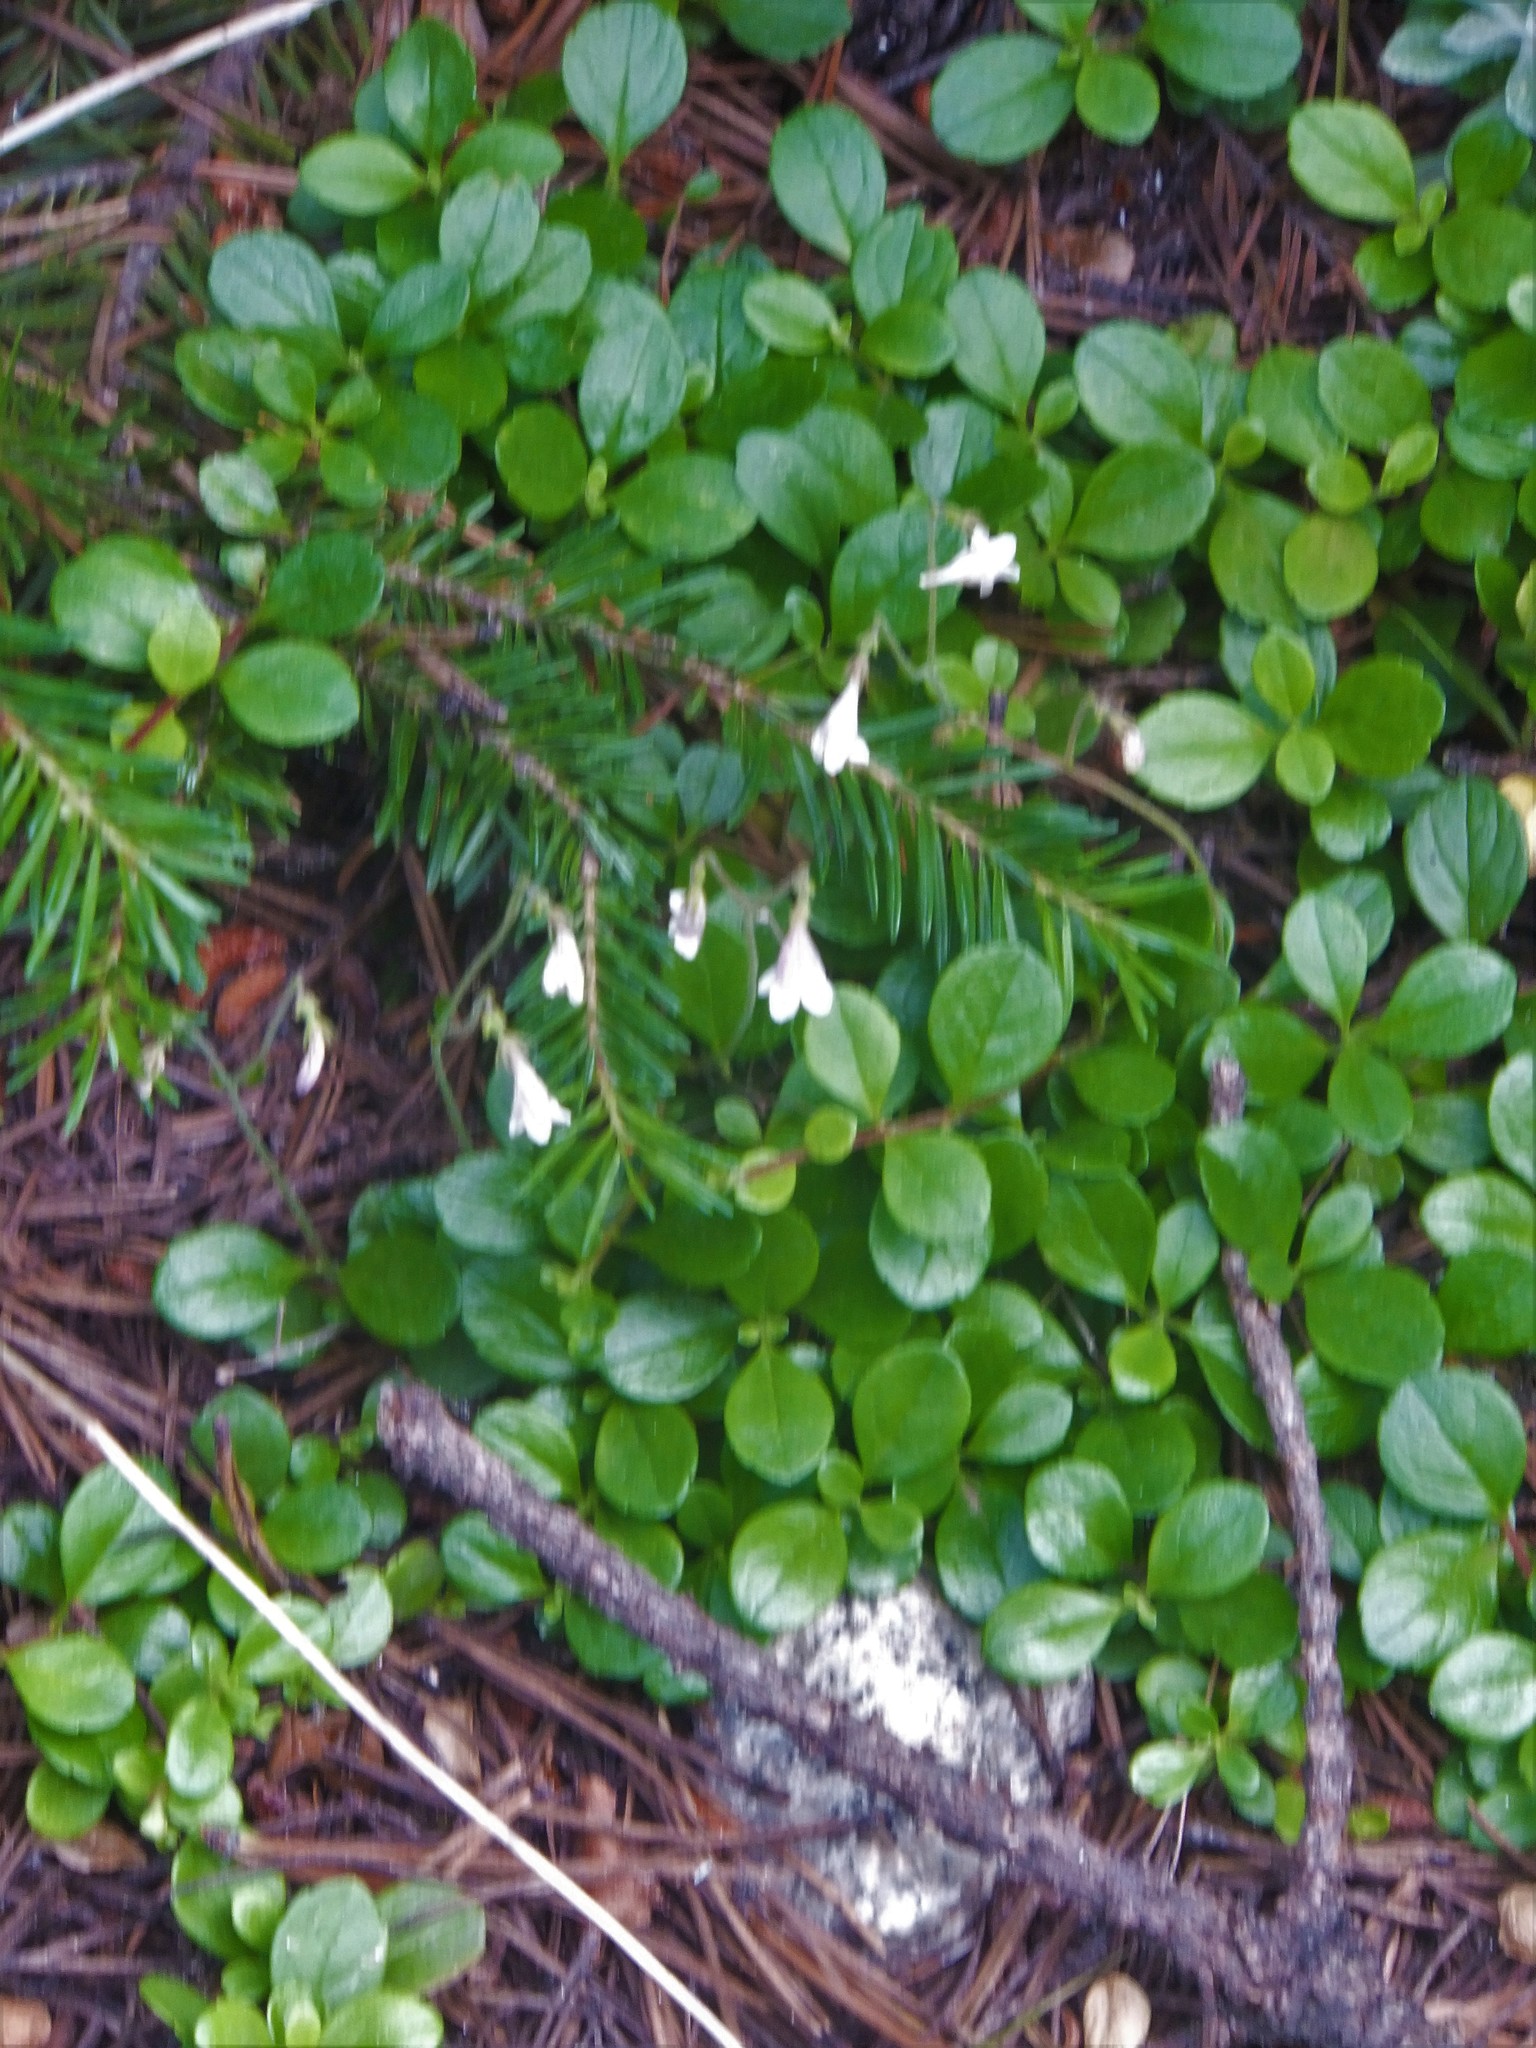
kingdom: Plantae
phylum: Tracheophyta
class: Magnoliopsida
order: Dipsacales
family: Caprifoliaceae
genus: Linnaea
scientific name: Linnaea borealis
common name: Twinflower
